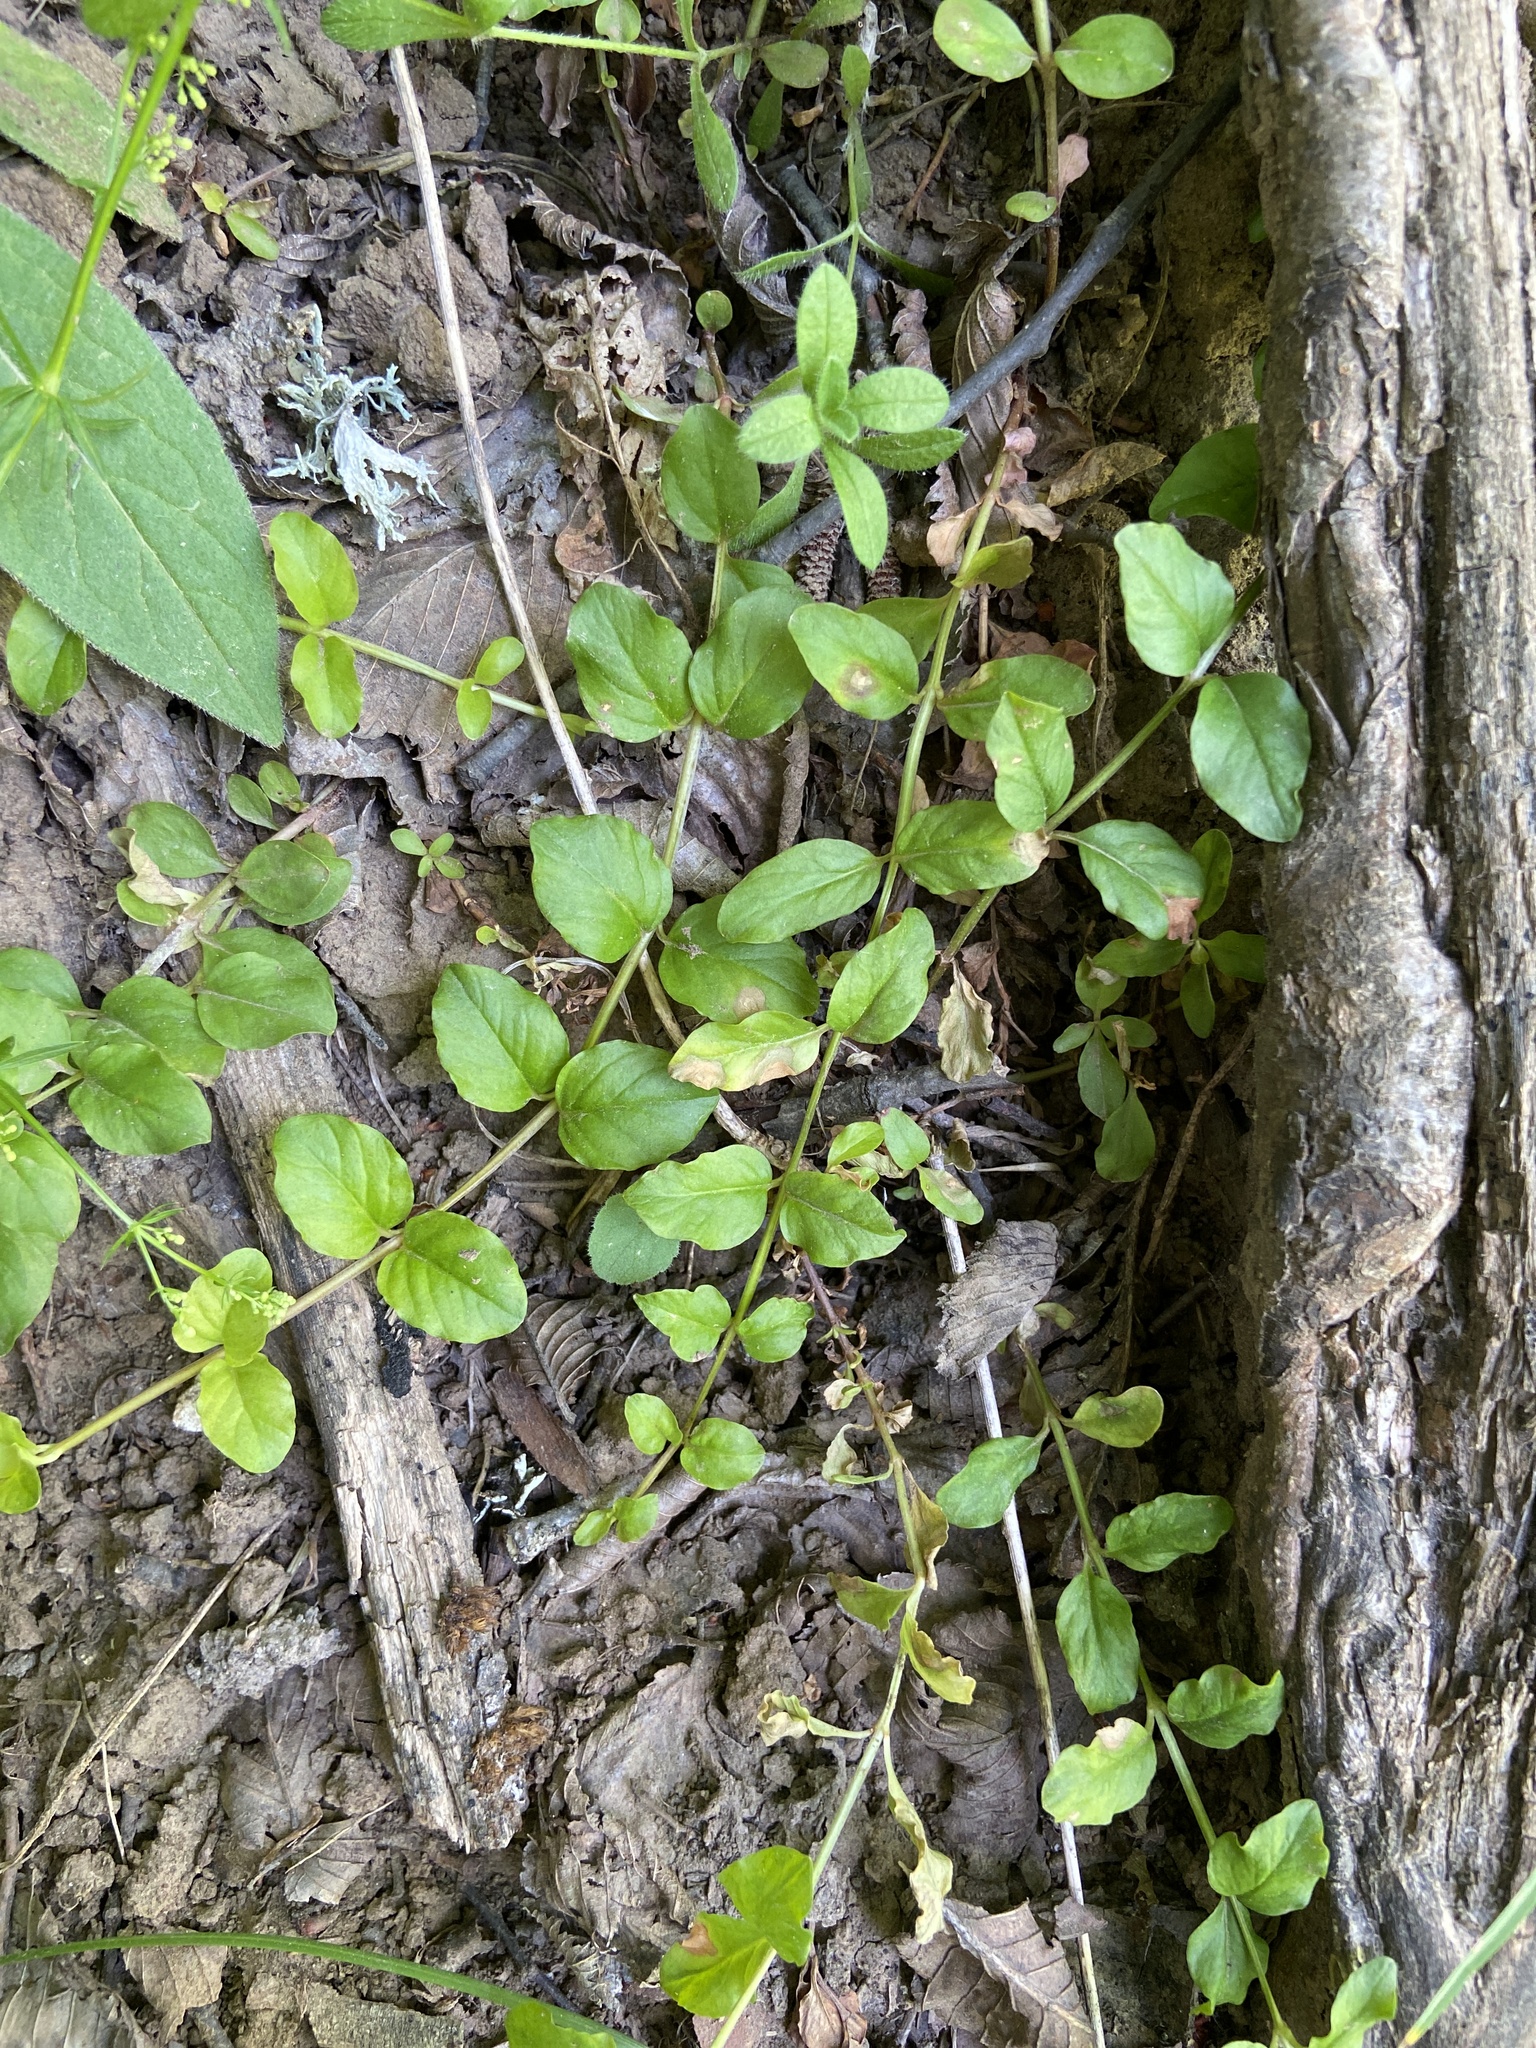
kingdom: Plantae
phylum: Tracheophyta
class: Magnoliopsida
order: Ericales
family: Primulaceae
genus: Lysimachia
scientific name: Lysimachia nummularia
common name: Moneywort
